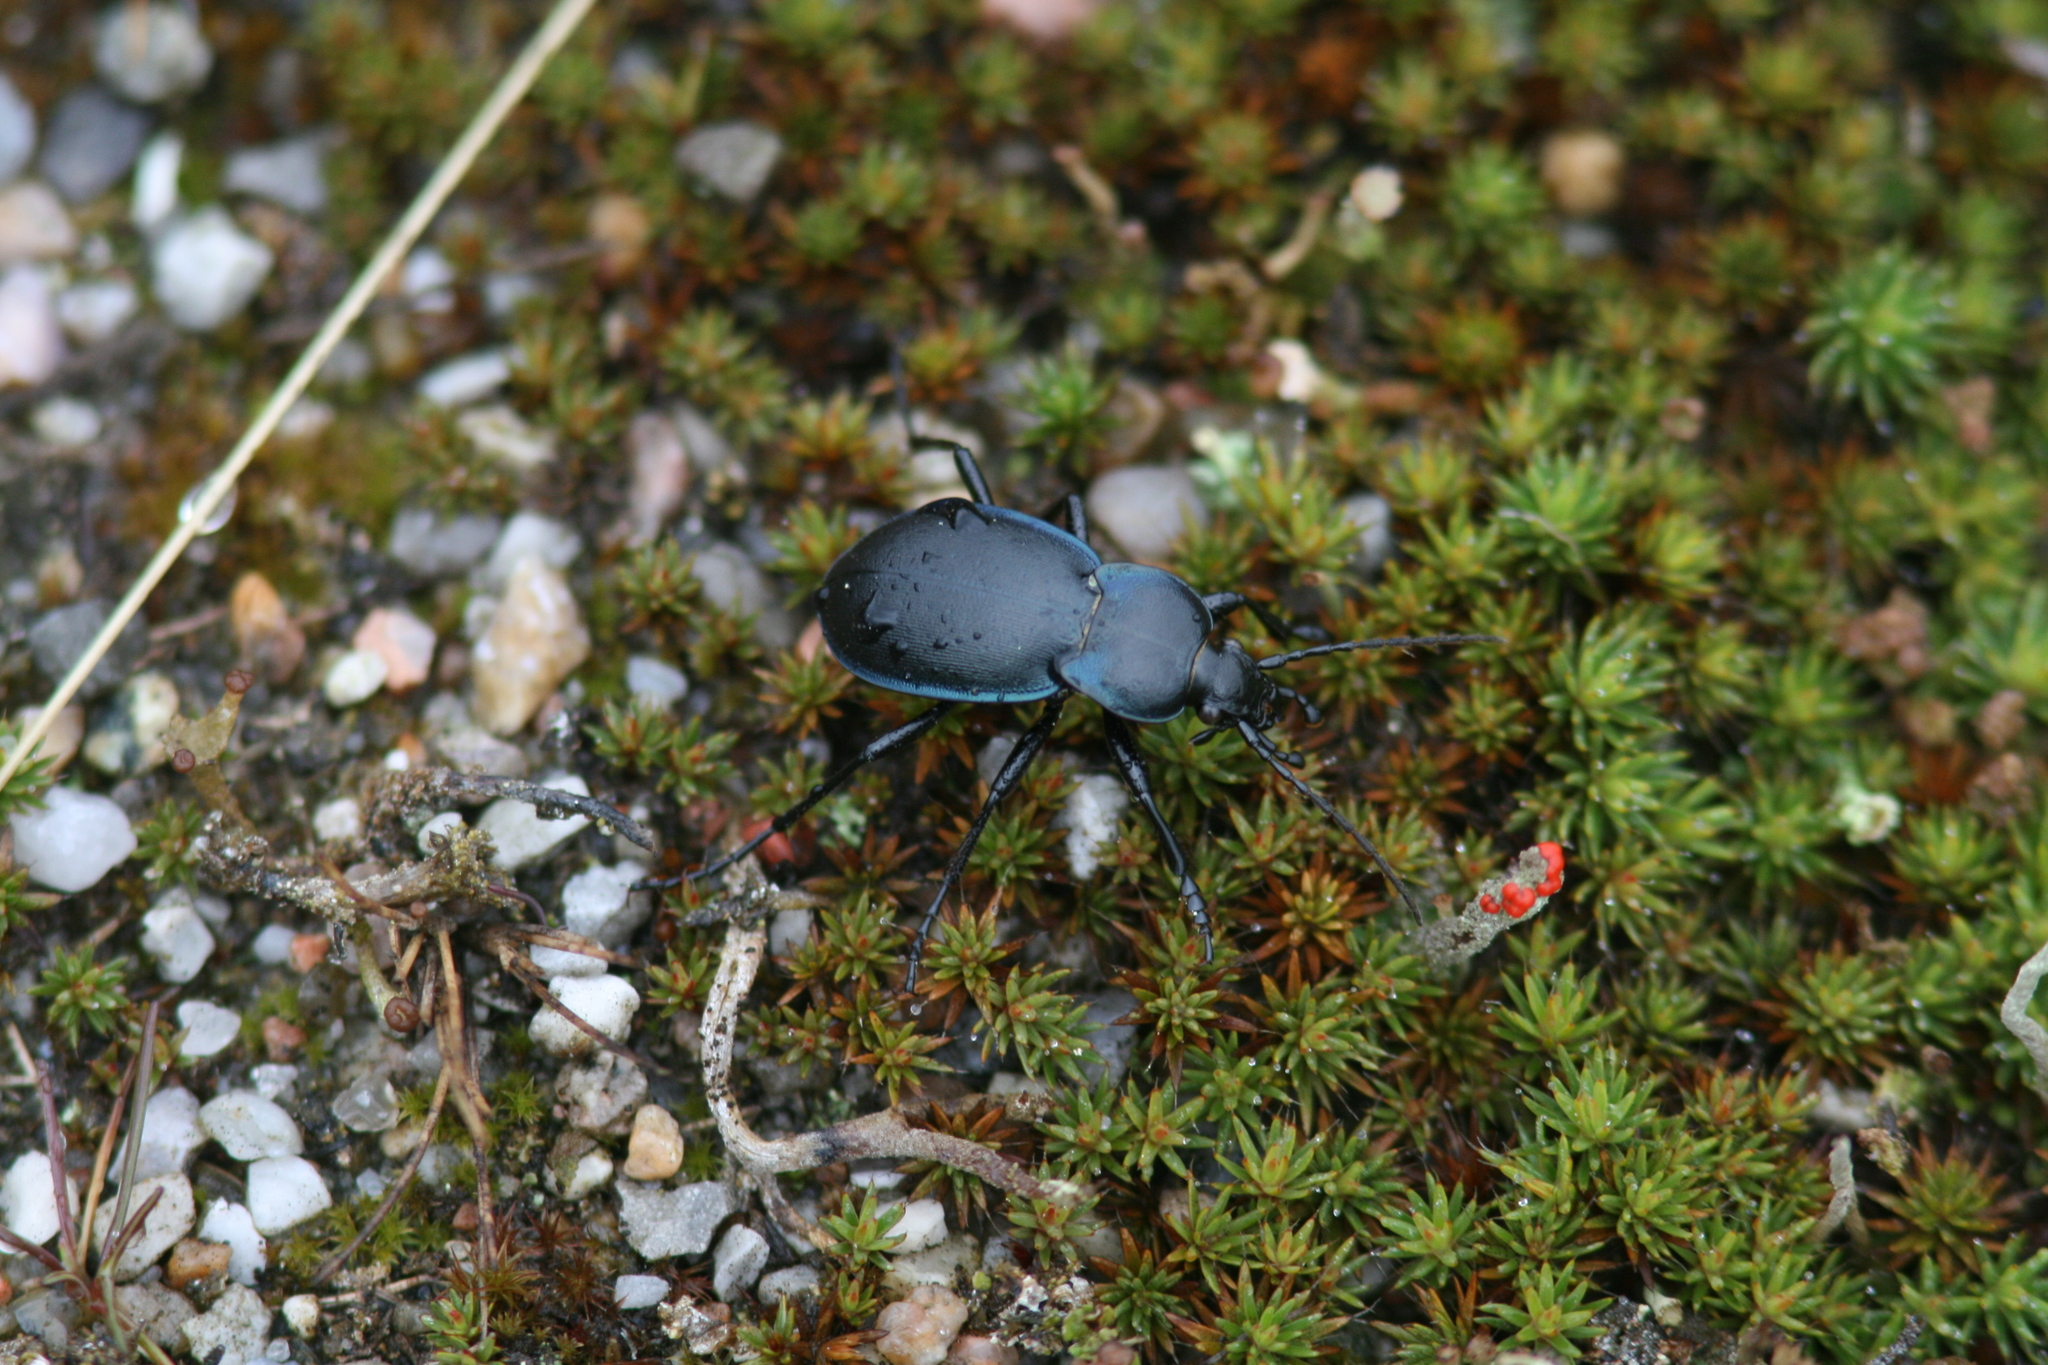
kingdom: Animalia
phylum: Arthropoda
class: Insecta
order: Coleoptera
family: Carabidae
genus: Carabus
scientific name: Carabus convexus
